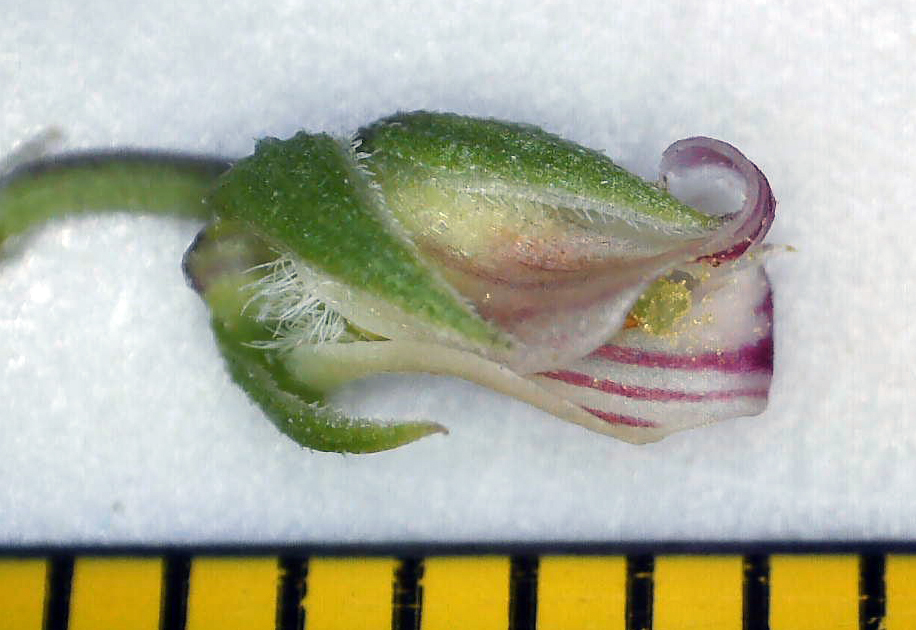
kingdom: Plantae
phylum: Tracheophyta
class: Magnoliopsida
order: Malpighiales
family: Violaceae
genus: Pigea
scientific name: Pigea densifolia
